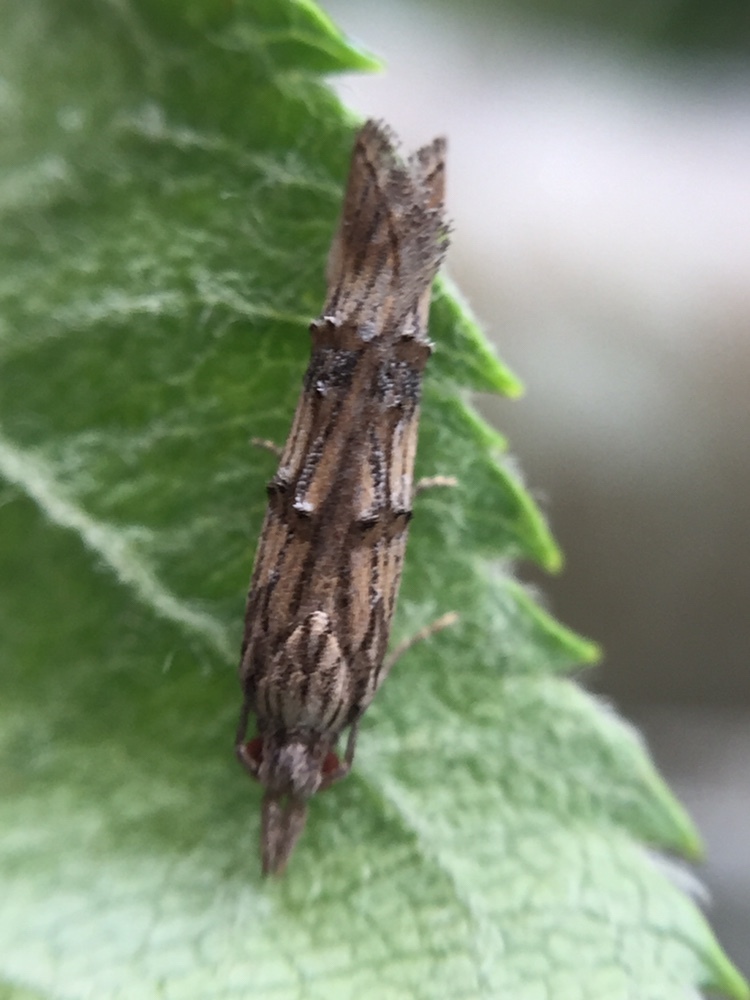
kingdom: Animalia
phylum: Arthropoda
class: Insecta
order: Lepidoptera
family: Carposinidae
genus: Carposina
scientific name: Carposina neurophorella
